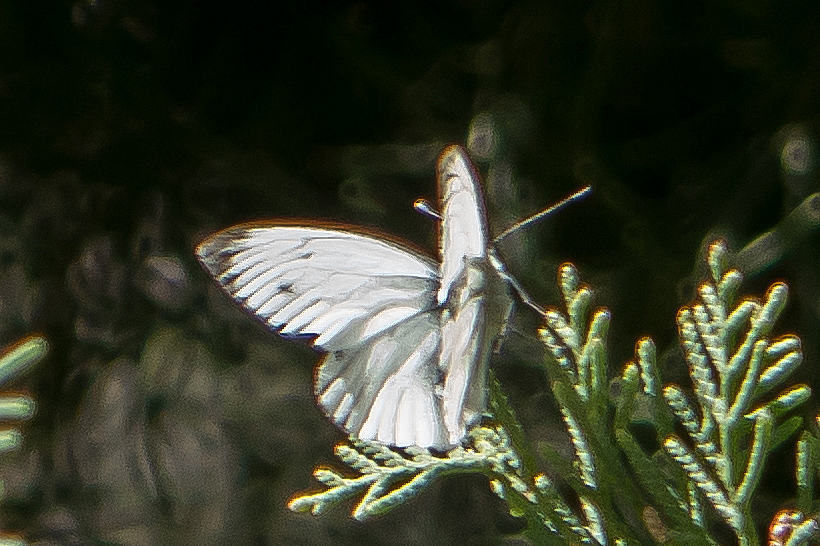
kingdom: Animalia
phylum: Arthropoda
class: Insecta
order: Lepidoptera
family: Pieridae
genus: Pieris
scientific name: Pieris napi
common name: Green-veined white
